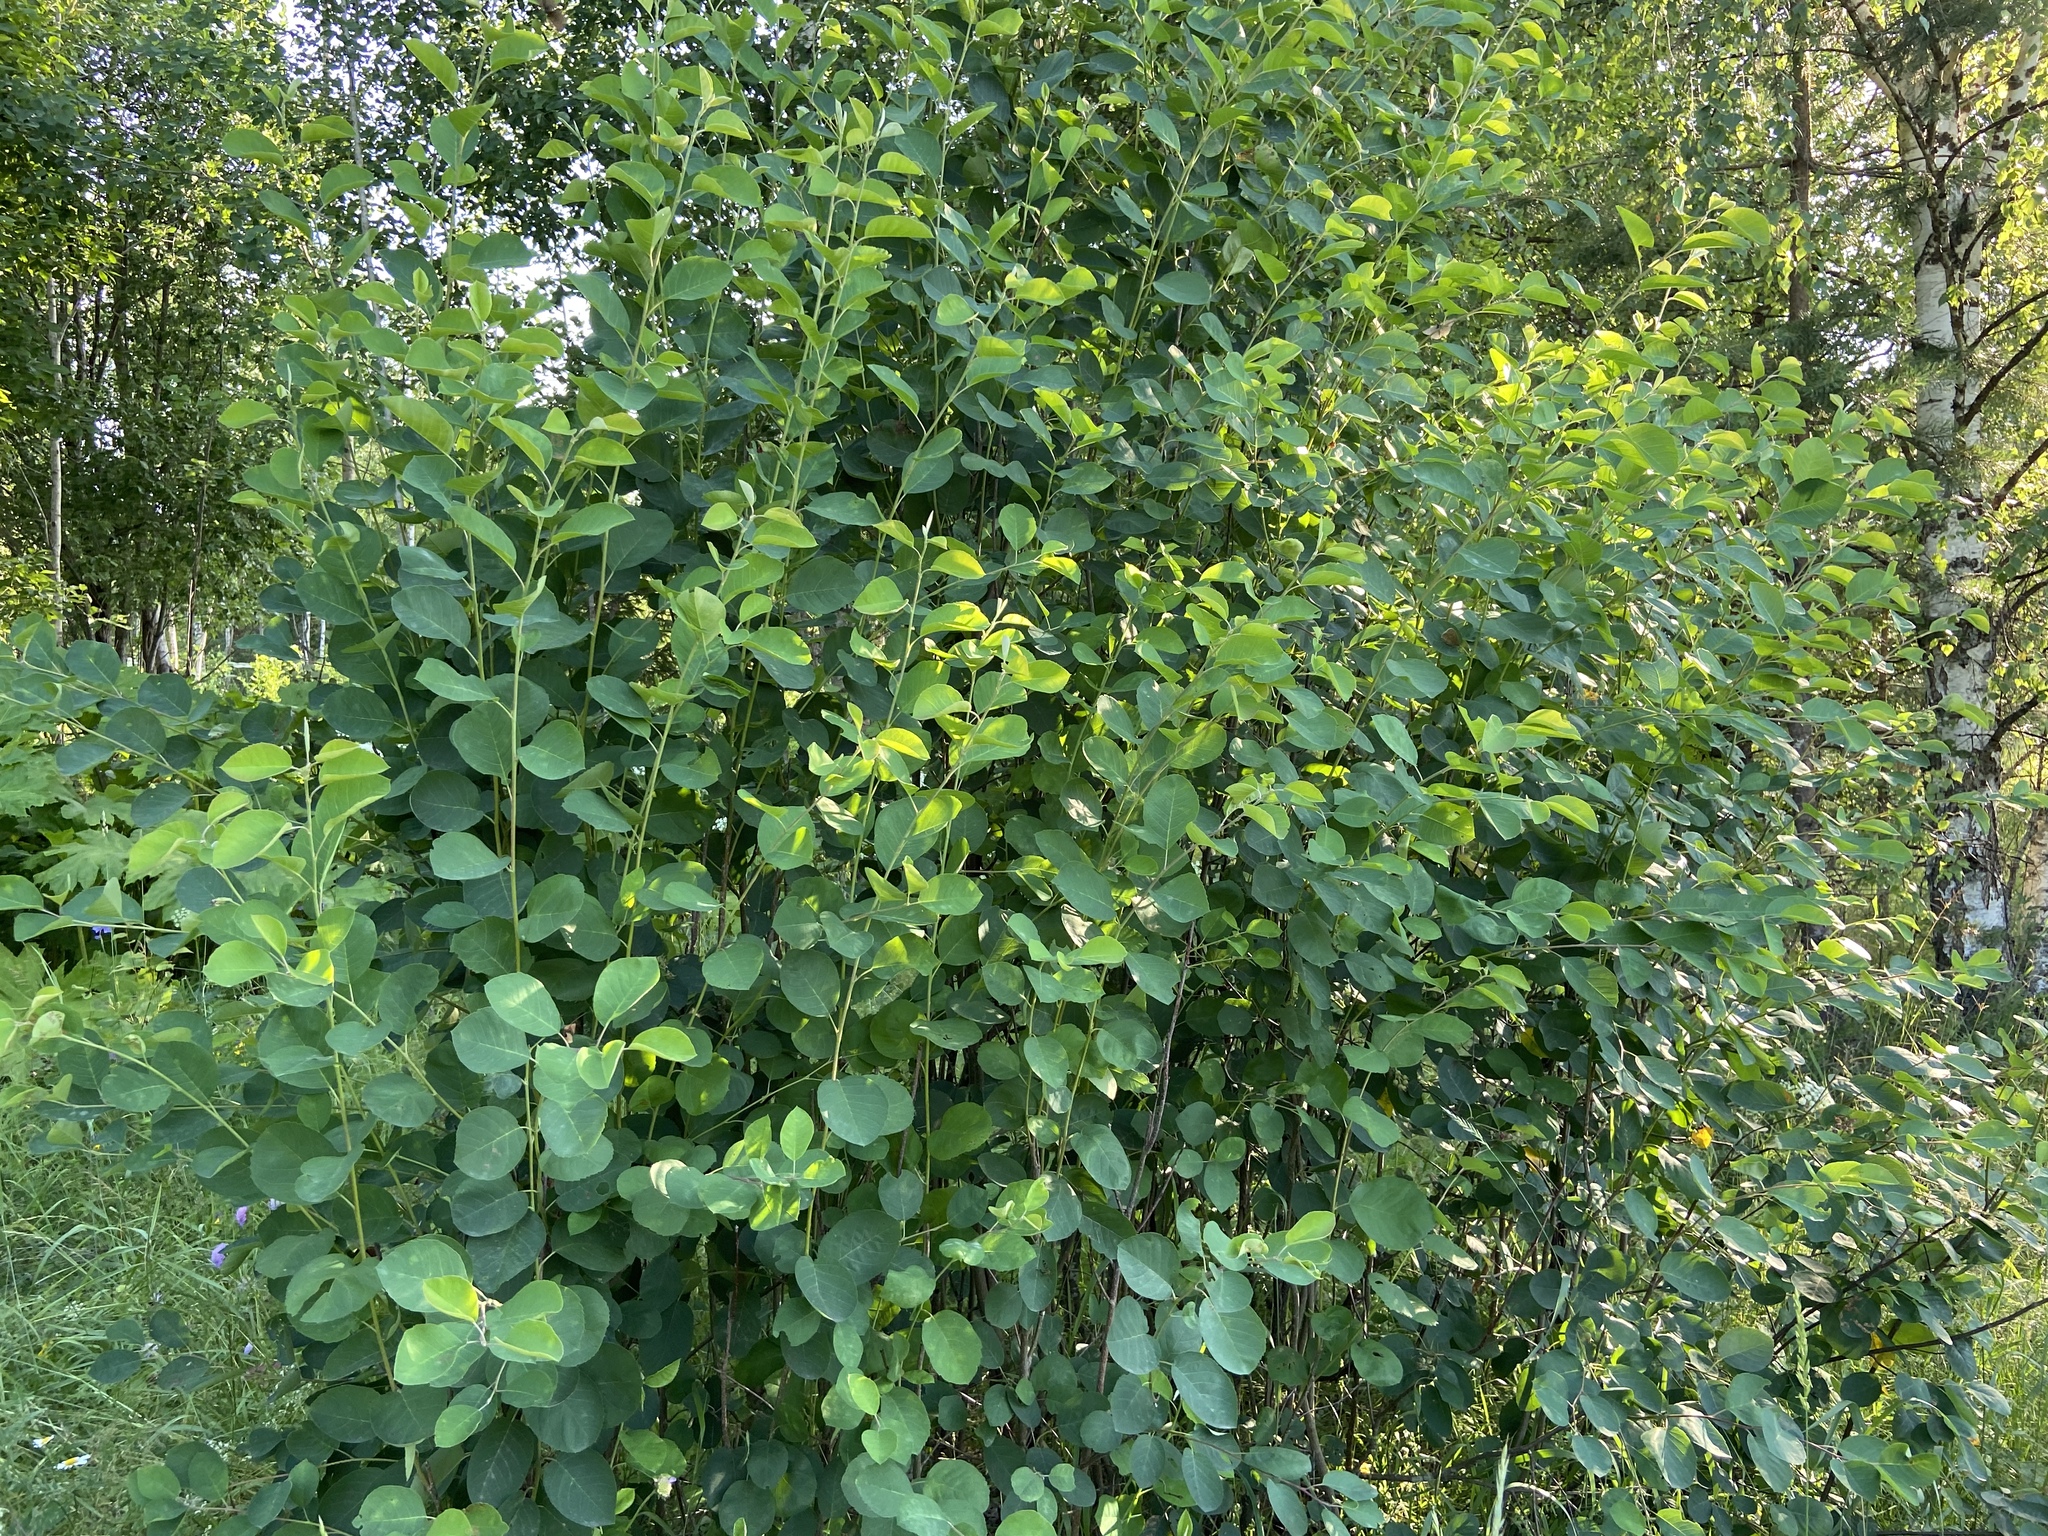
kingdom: Plantae
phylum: Tracheophyta
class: Magnoliopsida
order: Rosales
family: Rosaceae
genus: Amelanchier
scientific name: Amelanchier
